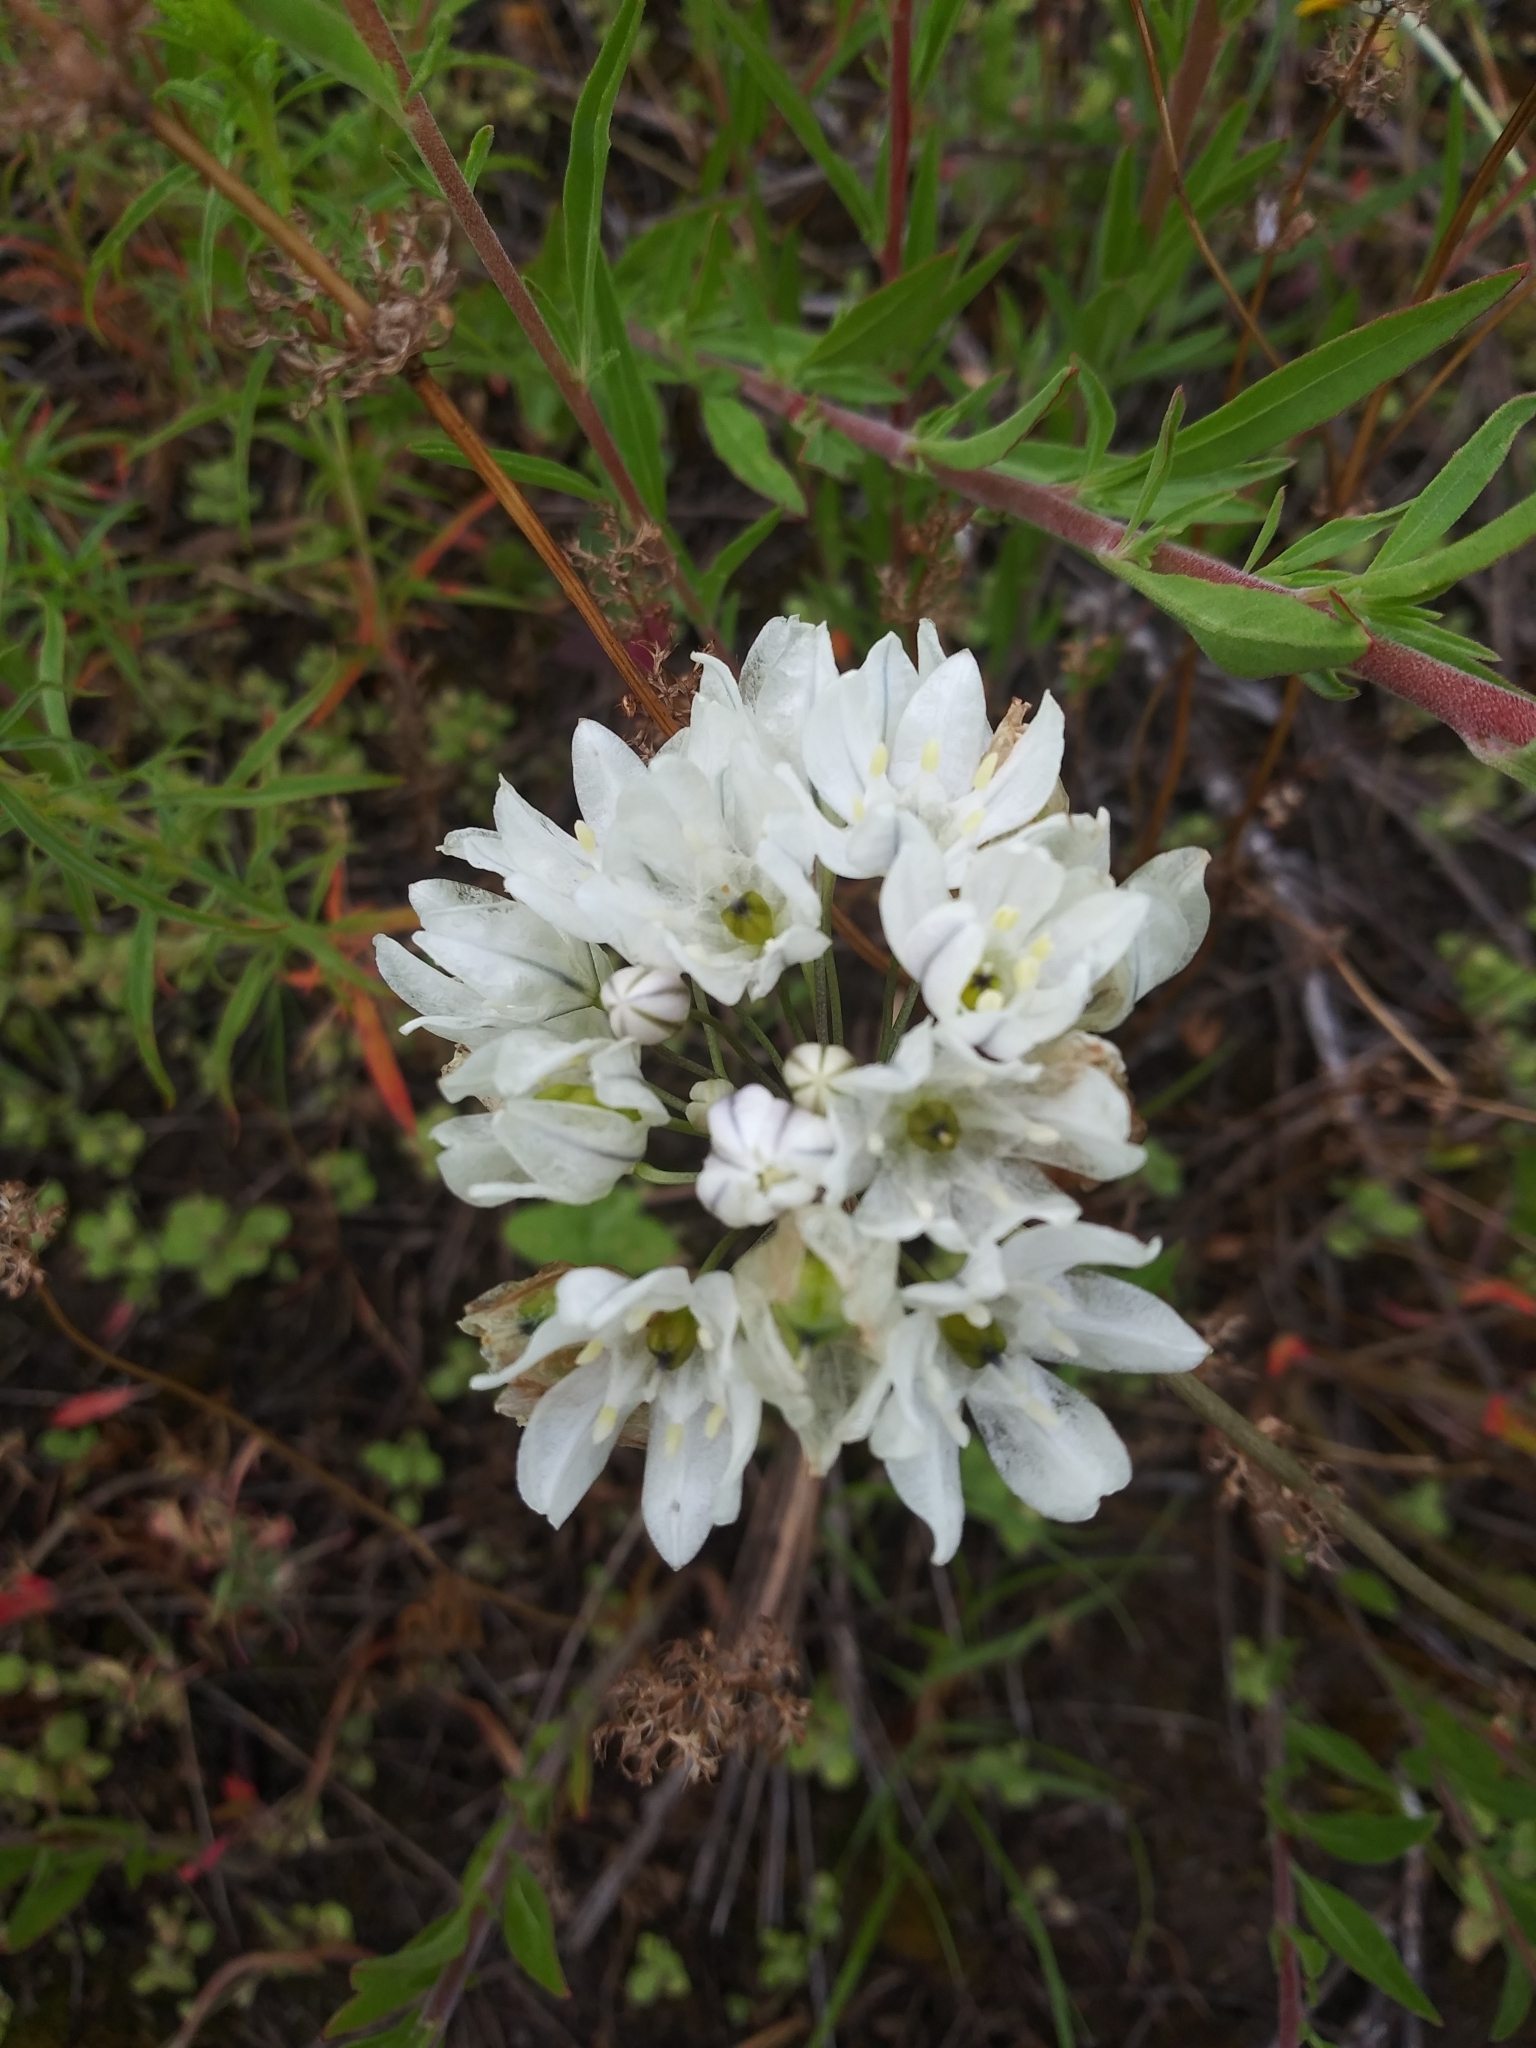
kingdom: Plantae
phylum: Tracheophyta
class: Liliopsida
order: Asparagales
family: Asparagaceae
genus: Triteleia
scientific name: Triteleia hyacinthina
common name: White brodiaea
